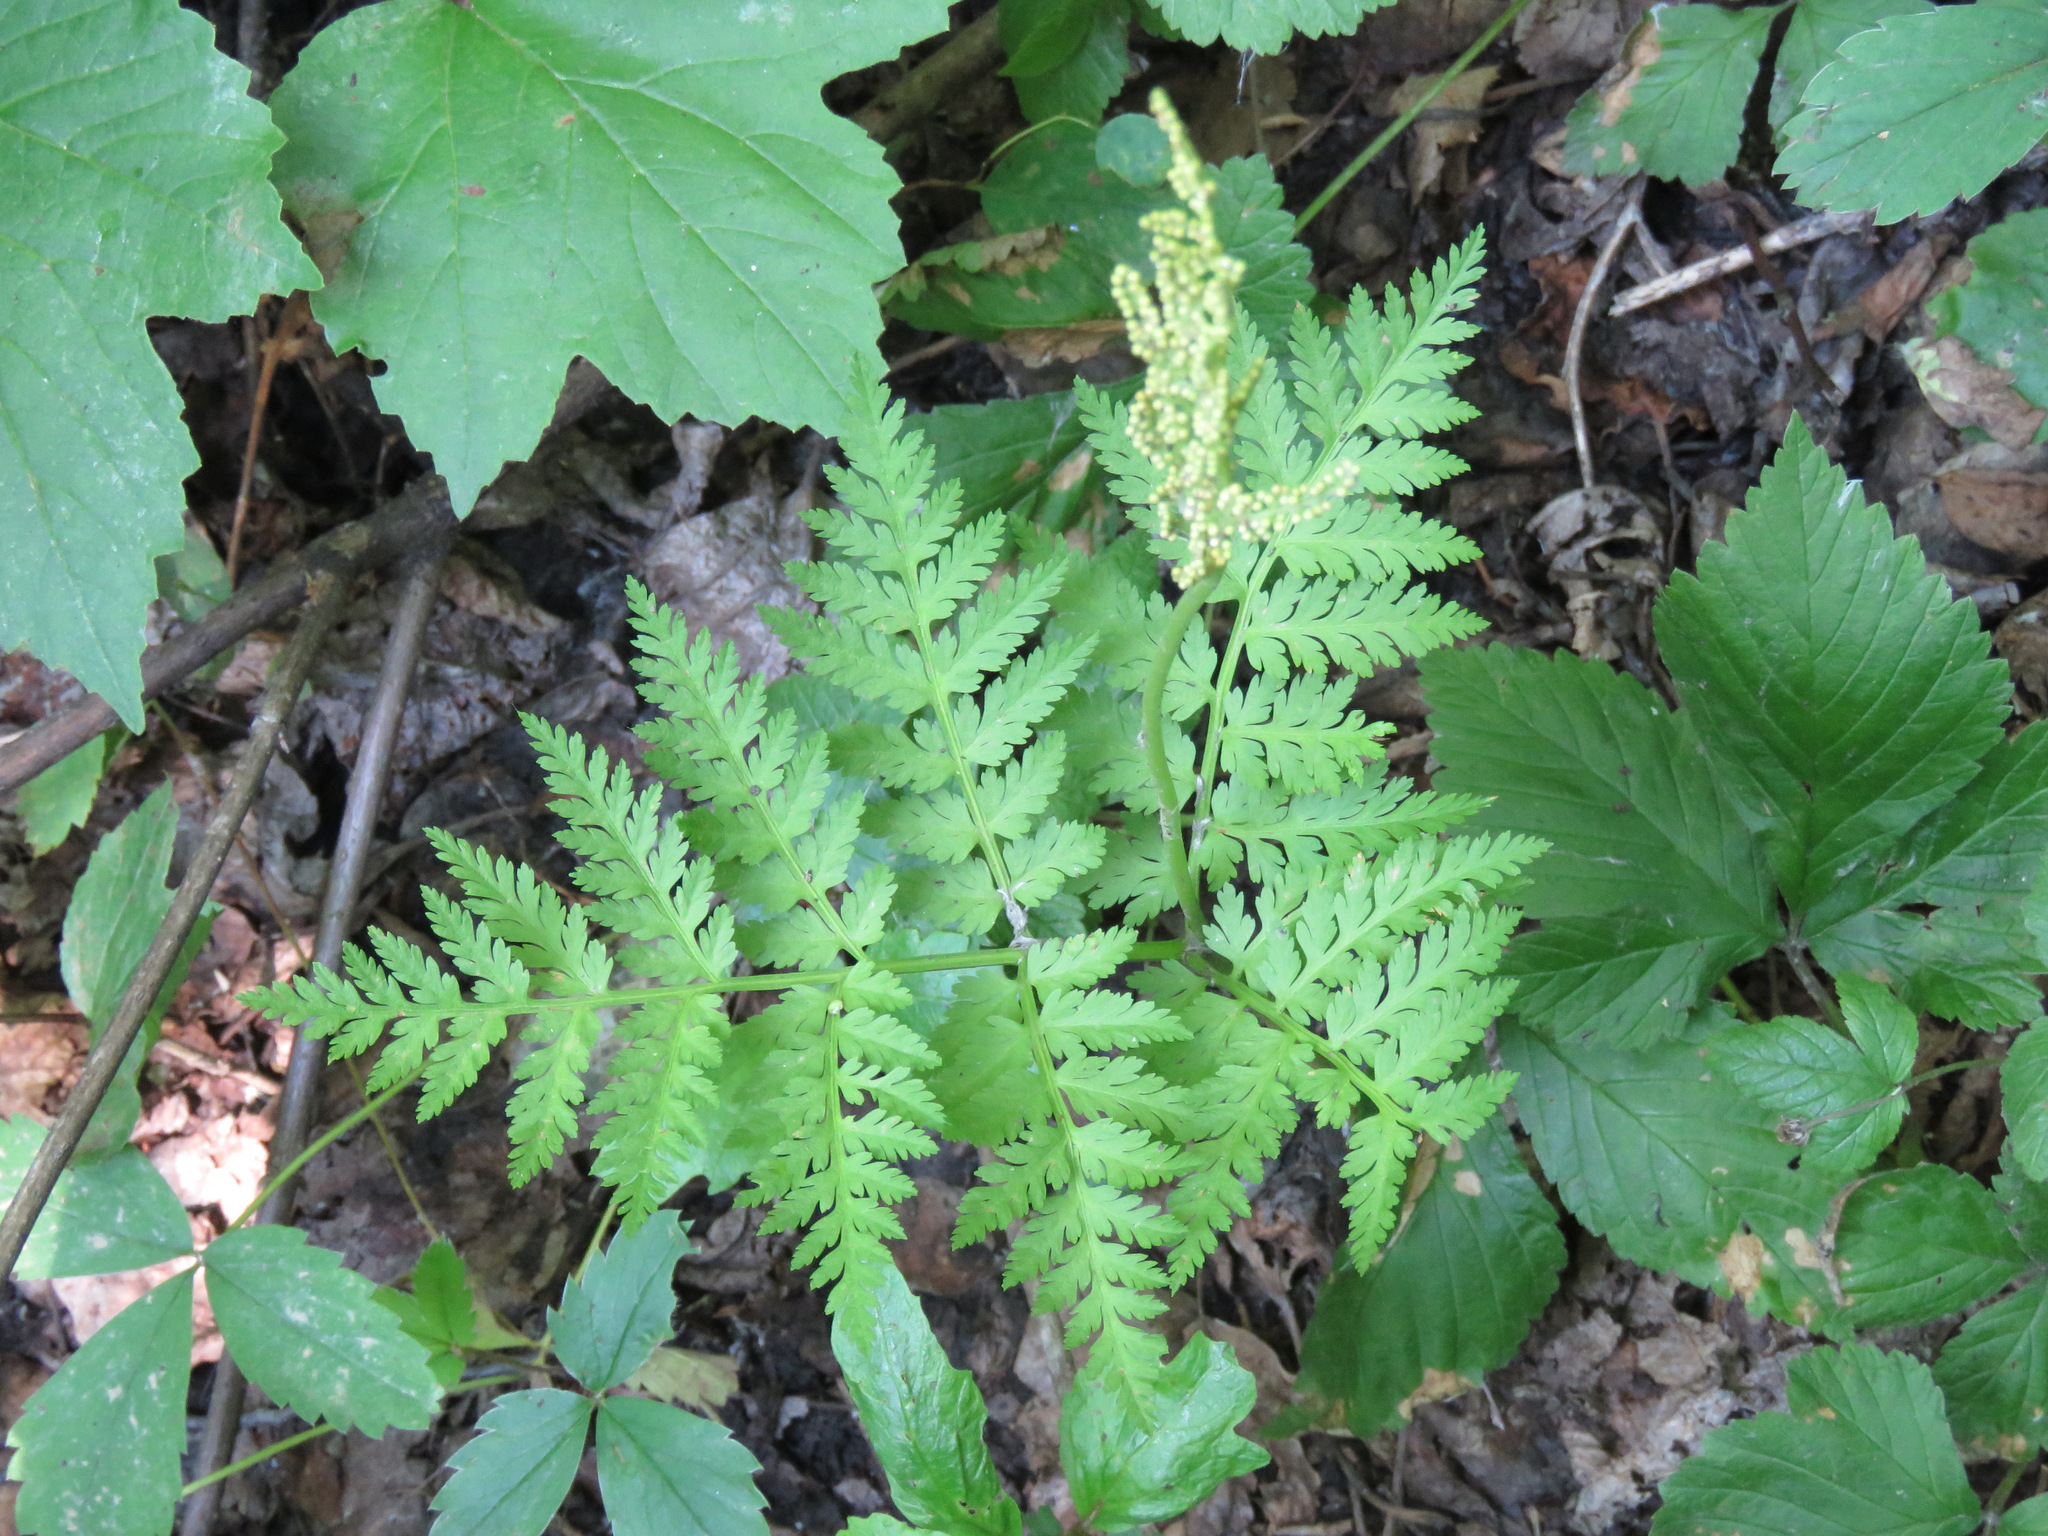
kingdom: Plantae
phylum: Tracheophyta
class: Polypodiopsida
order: Ophioglossales
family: Ophioglossaceae
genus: Botrypus
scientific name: Botrypus virginianus
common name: Common grapefern
